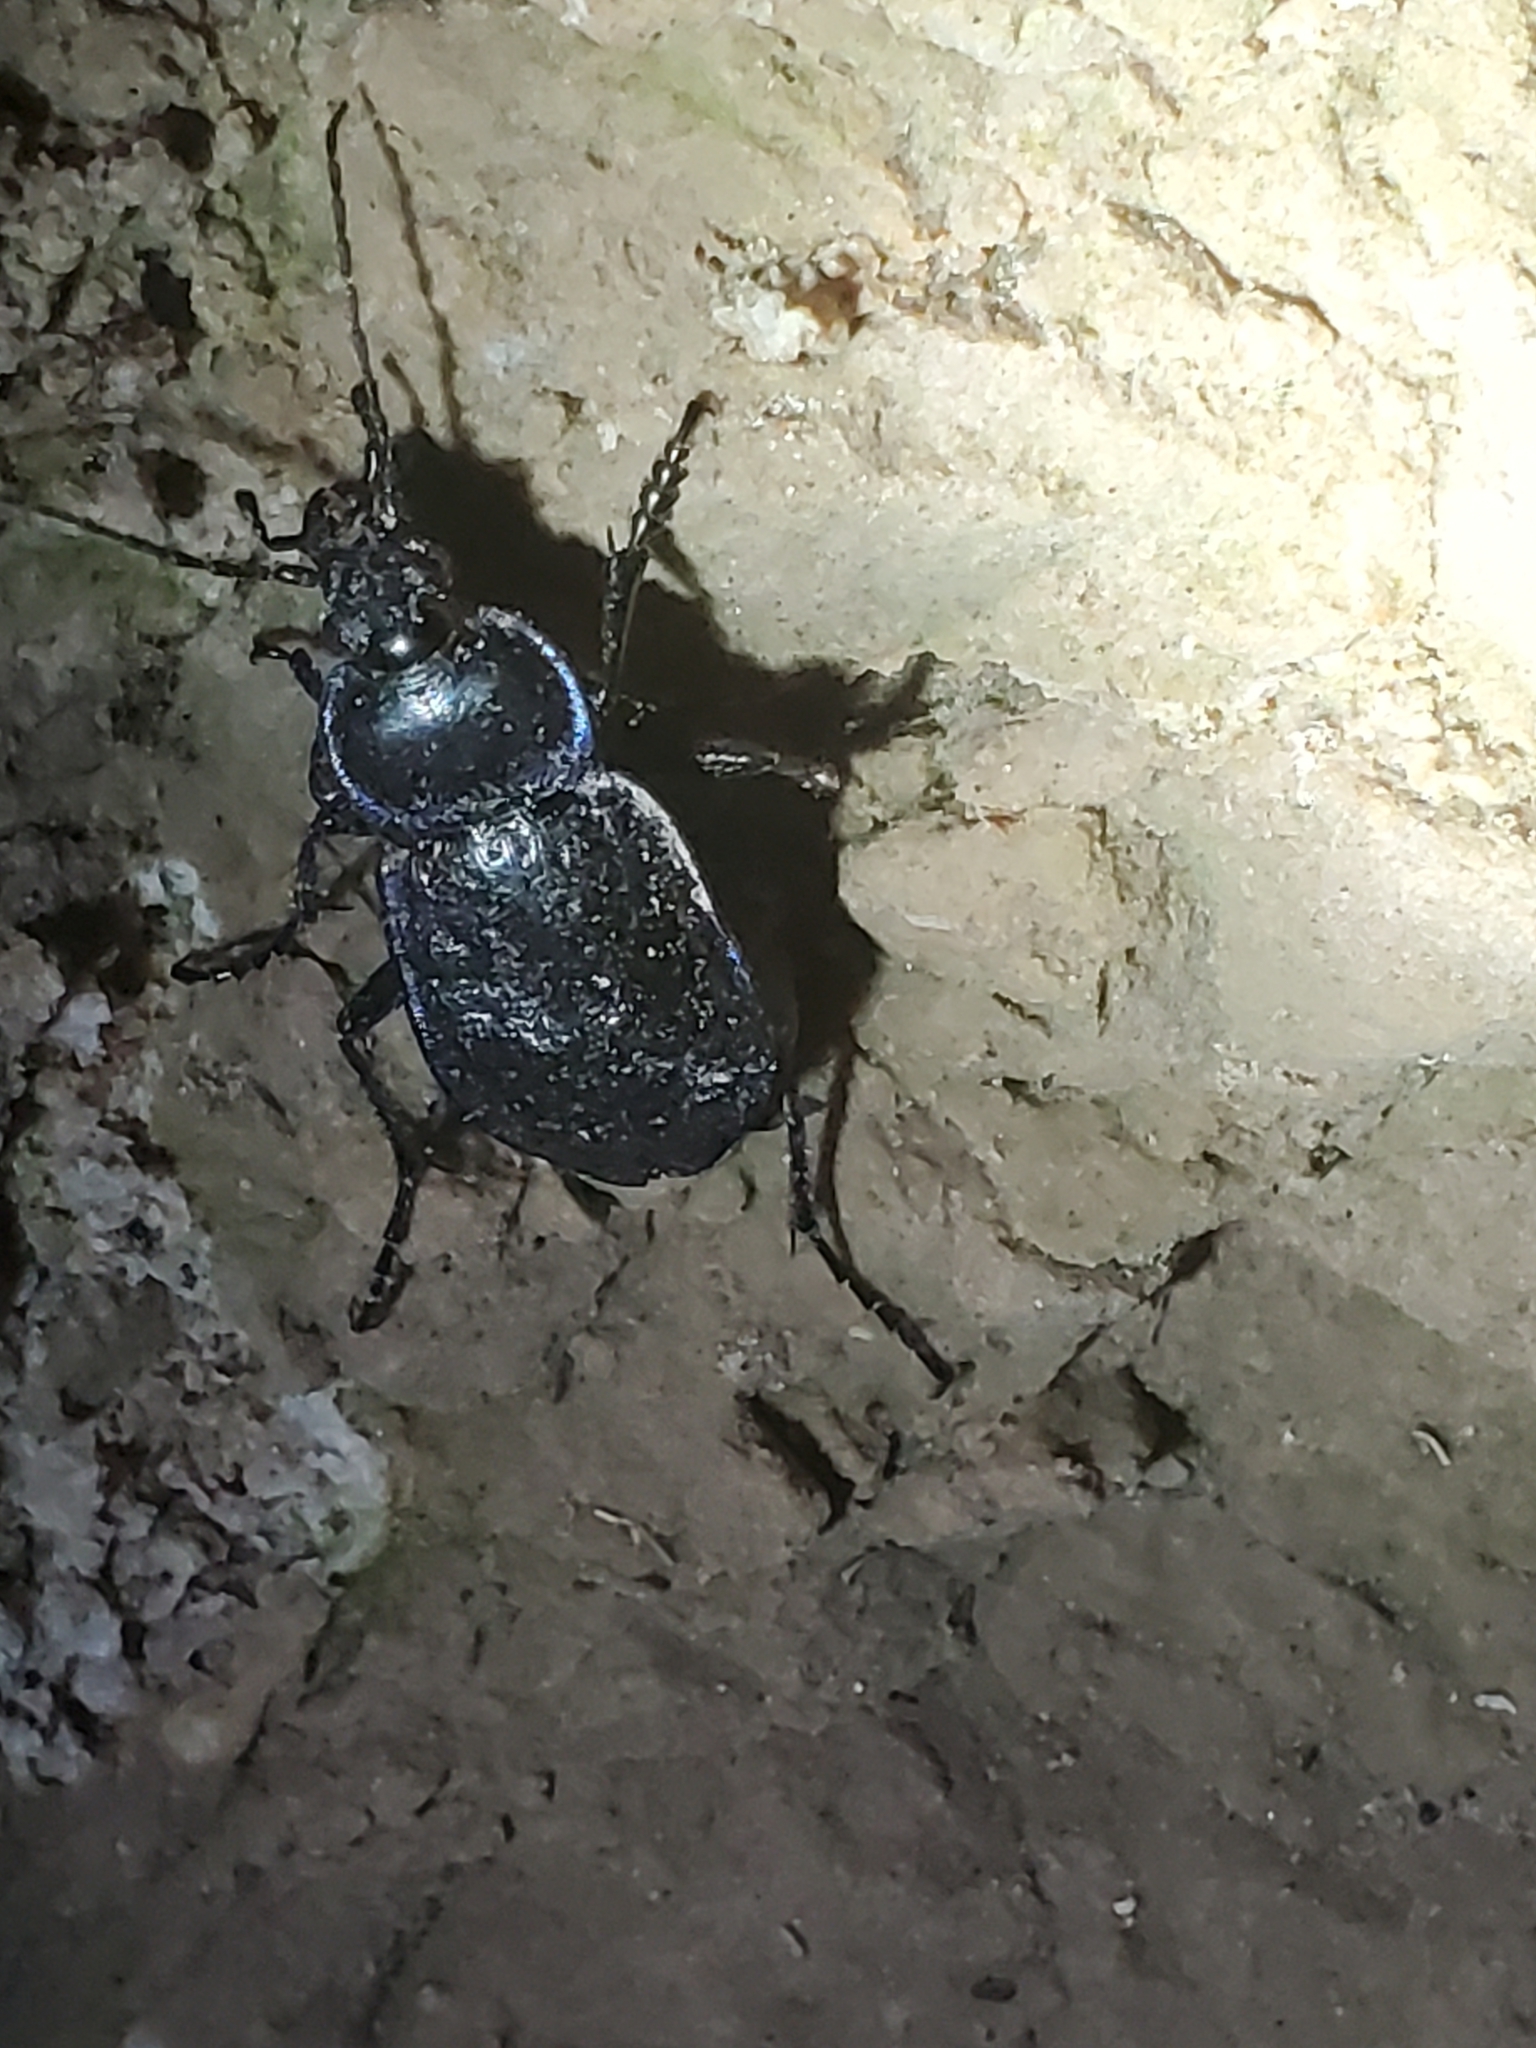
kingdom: Animalia
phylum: Arthropoda
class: Insecta
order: Coleoptera
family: Carabidae
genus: Carabus
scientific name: Carabus serratus
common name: Serrate-shoulder worm and slug hunter
